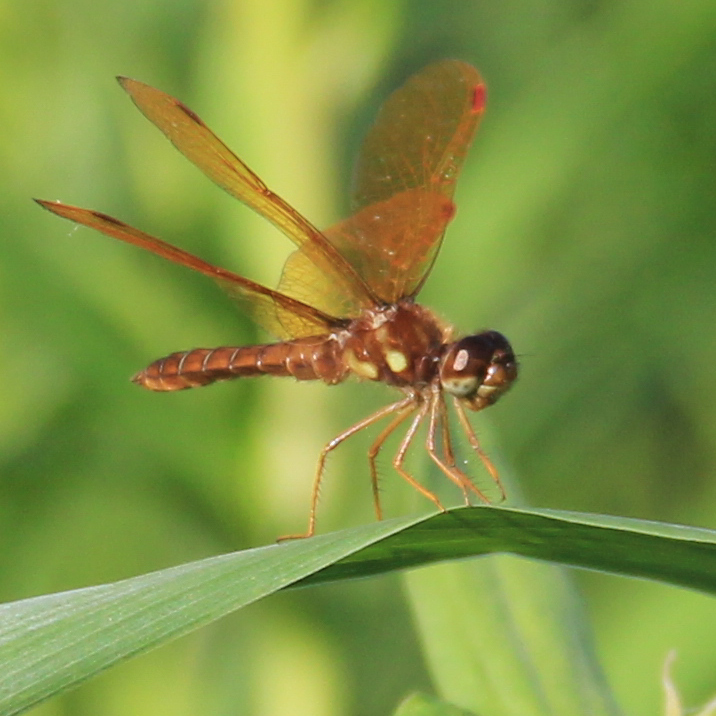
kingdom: Animalia
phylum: Arthropoda
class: Insecta
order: Odonata
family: Libellulidae
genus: Perithemis
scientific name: Perithemis tenera
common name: Eastern amberwing
